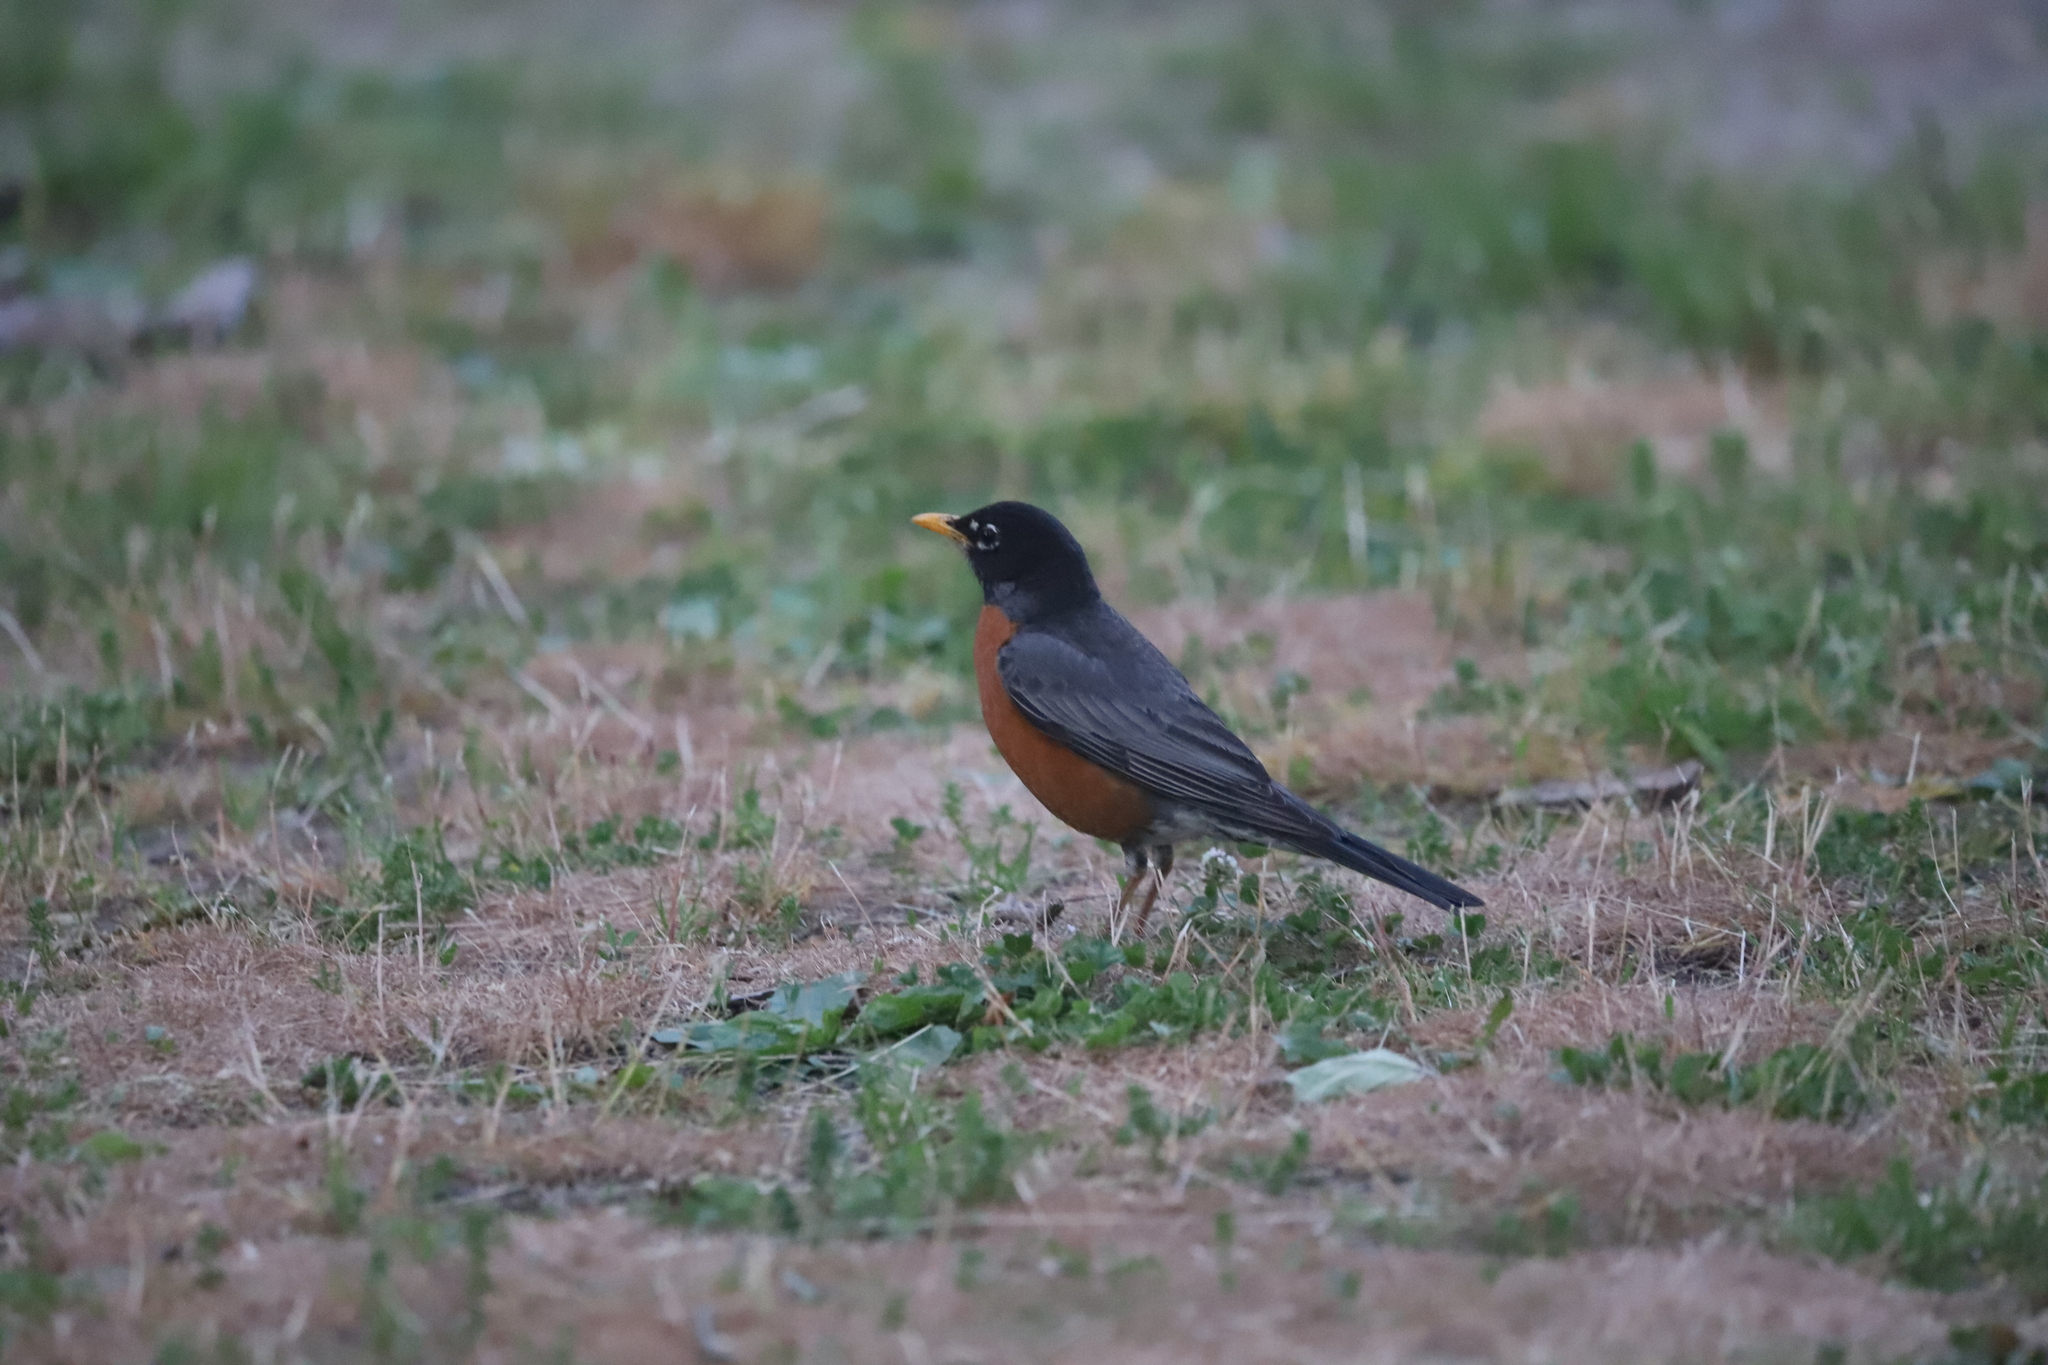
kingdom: Animalia
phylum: Chordata
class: Aves
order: Passeriformes
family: Turdidae
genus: Turdus
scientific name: Turdus migratorius
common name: American robin
